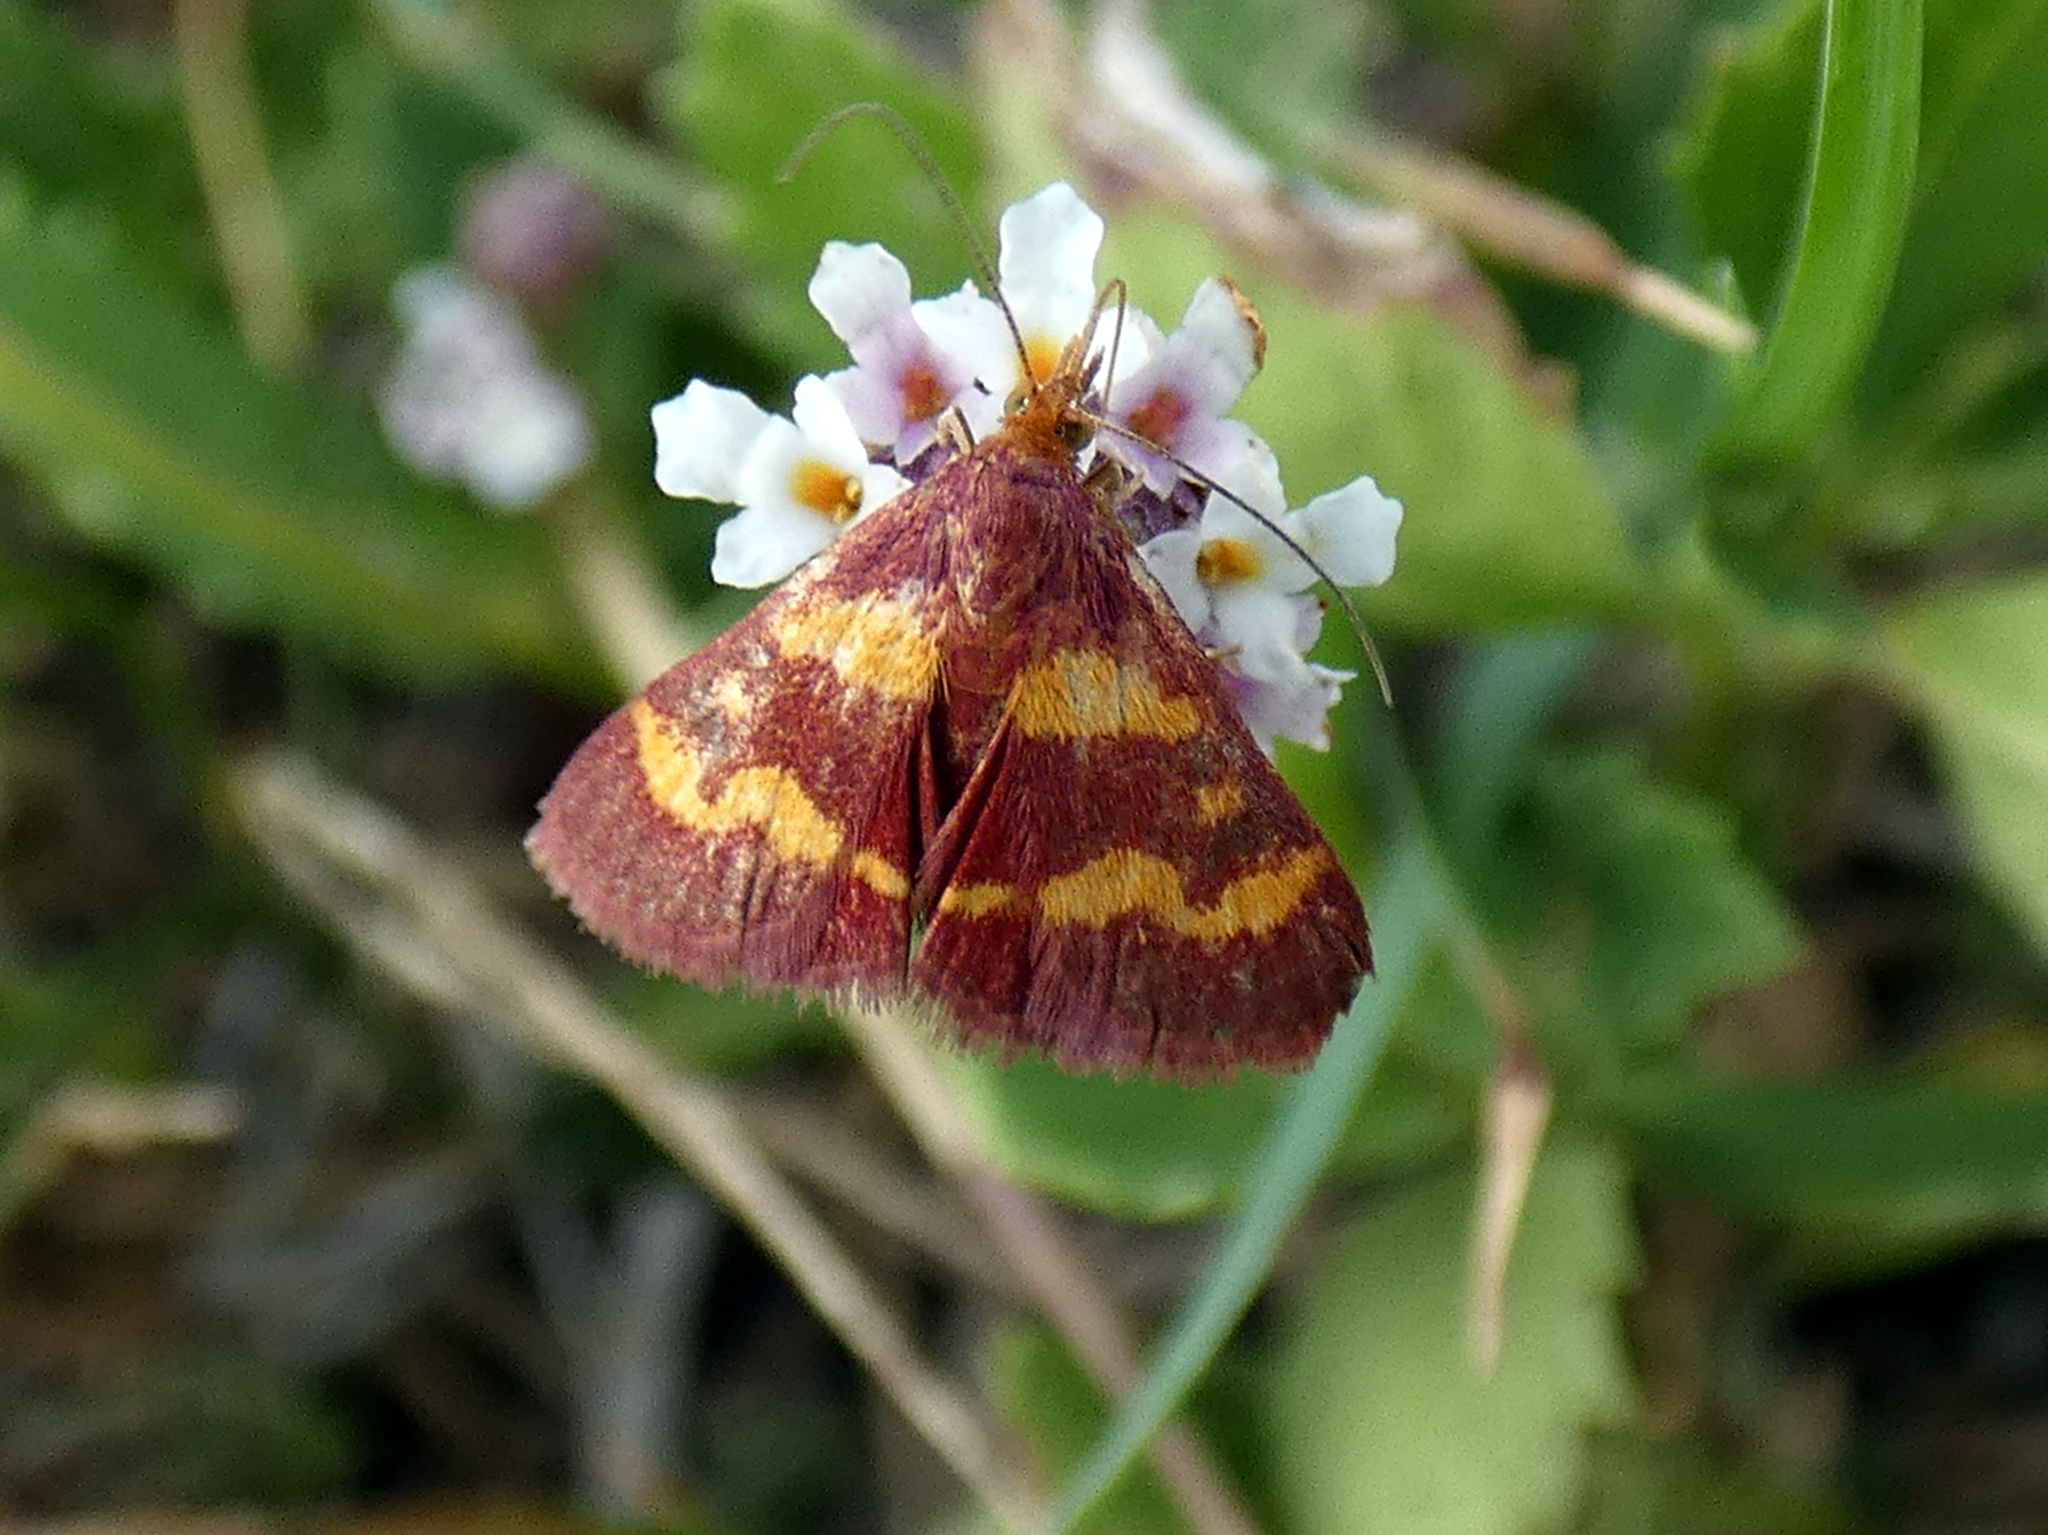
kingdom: Animalia
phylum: Arthropoda
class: Insecta
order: Lepidoptera
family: Crambidae
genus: Pyrausta
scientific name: Pyrausta tyralis
